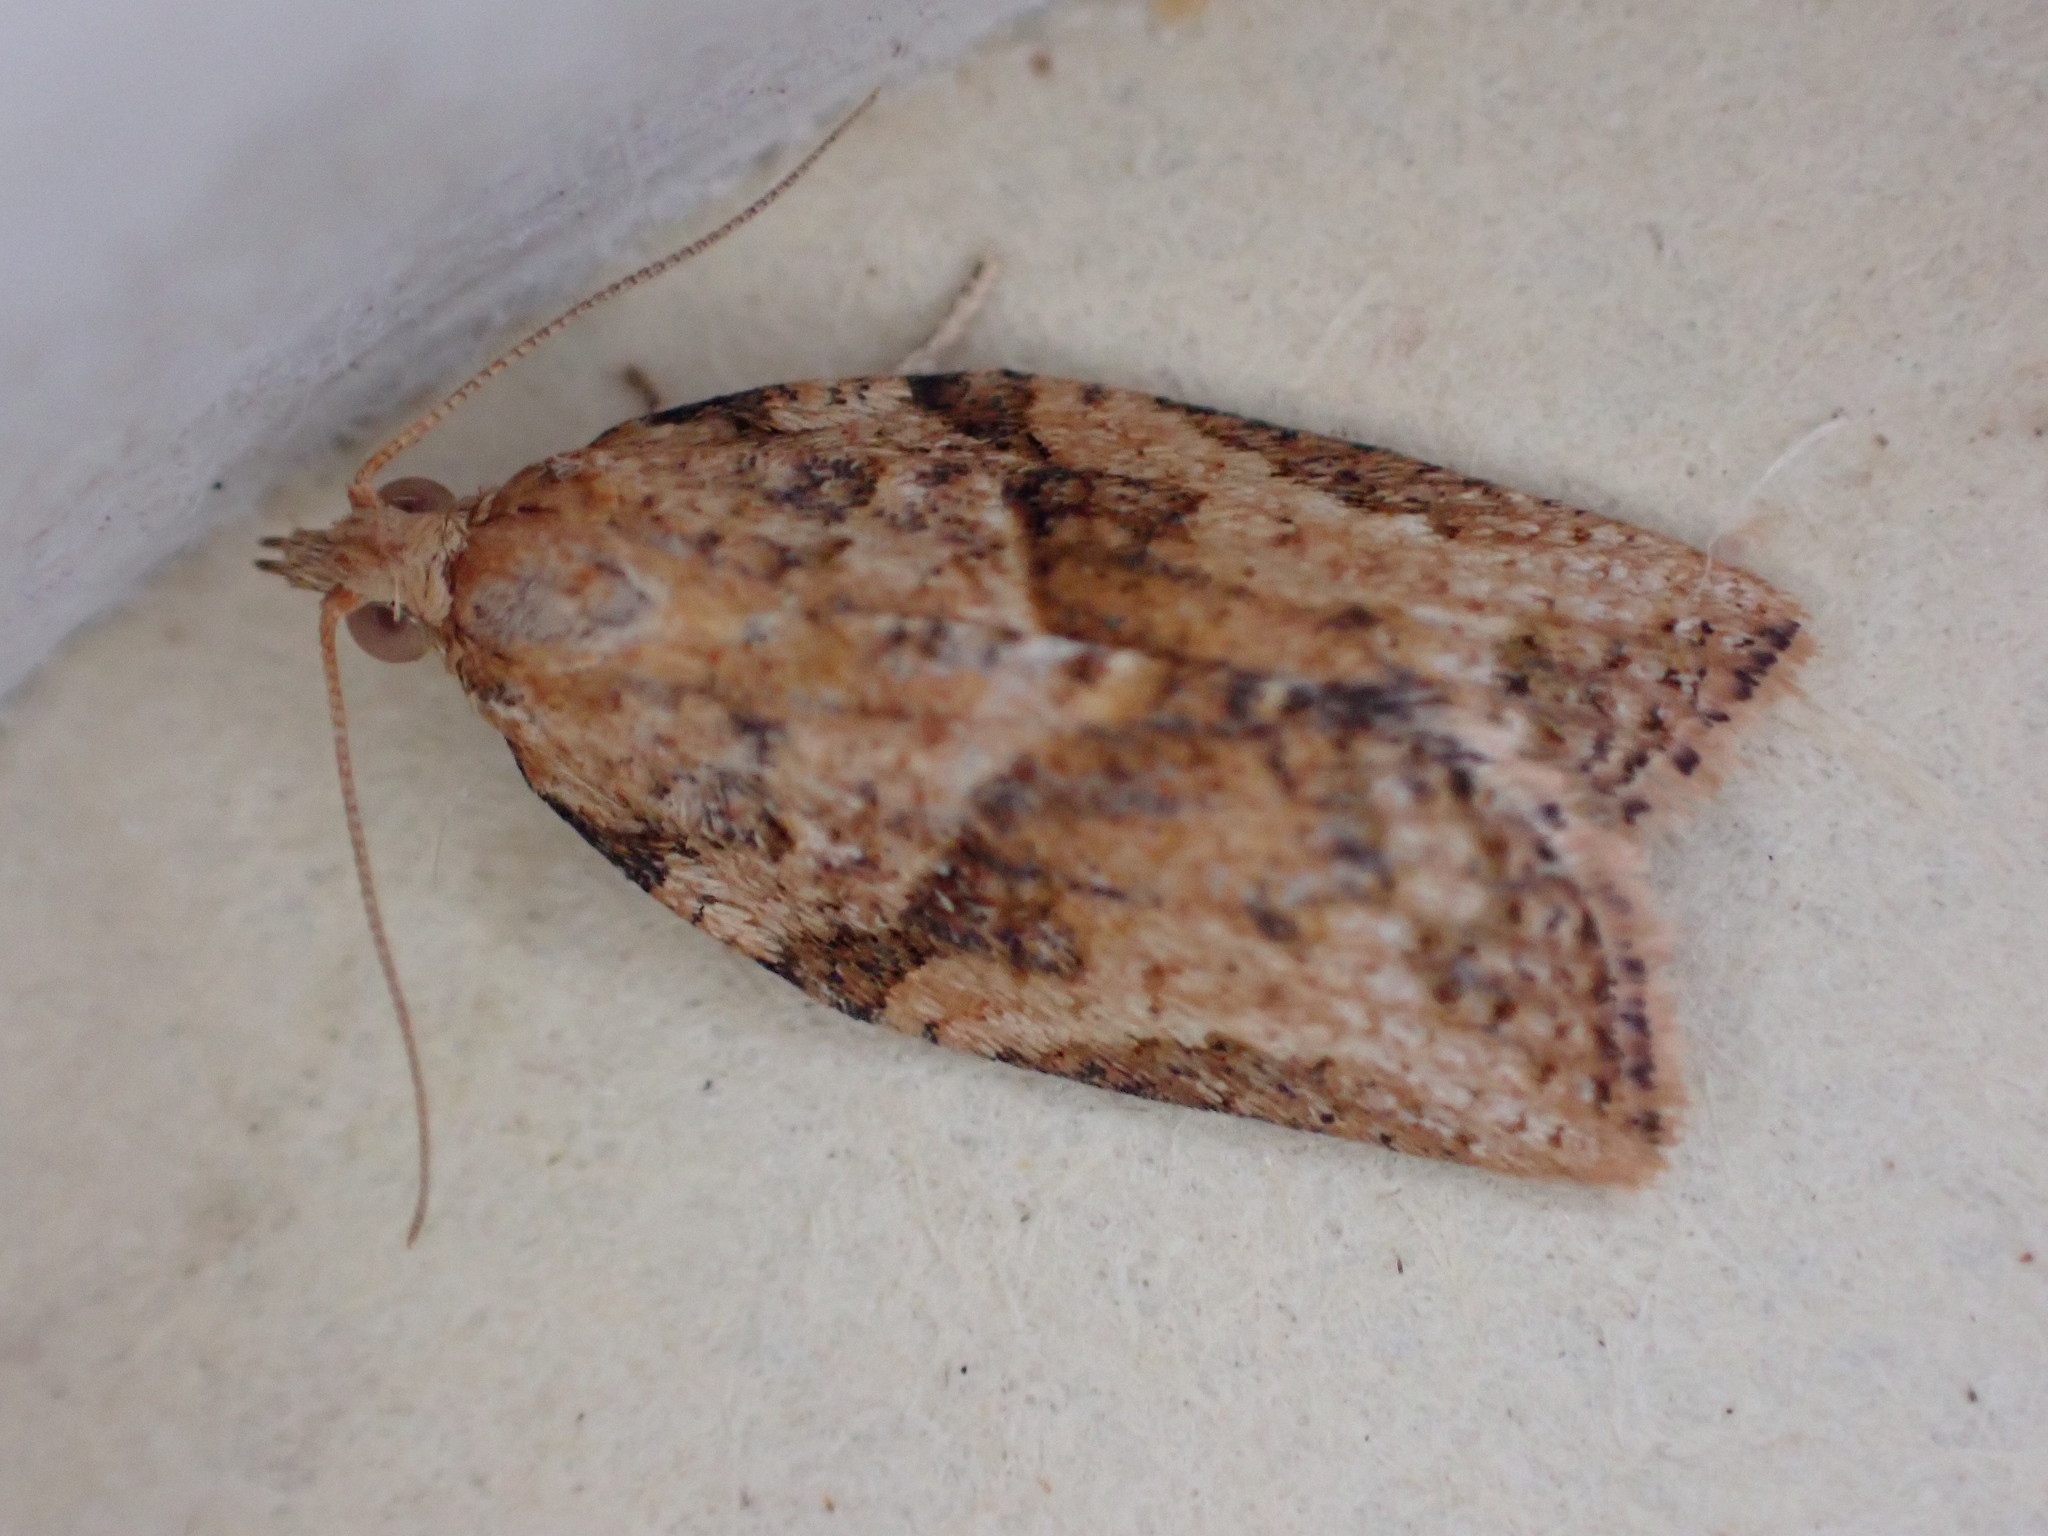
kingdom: Animalia
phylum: Arthropoda
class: Insecta
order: Lepidoptera
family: Tortricidae
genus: Epiphyas
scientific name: Epiphyas postvittana
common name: Light brown apple moth
